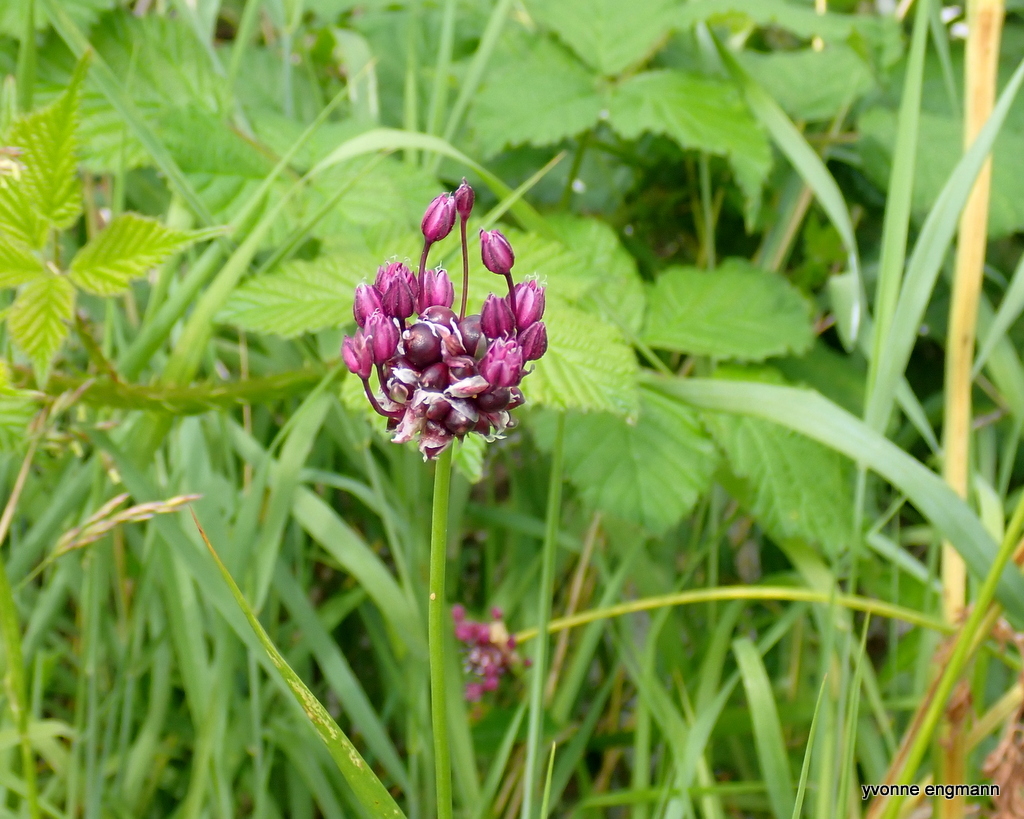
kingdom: Plantae
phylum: Tracheophyta
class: Liliopsida
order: Asparagales
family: Amaryllidaceae
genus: Allium
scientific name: Allium scorodoprasum
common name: Sand leek
